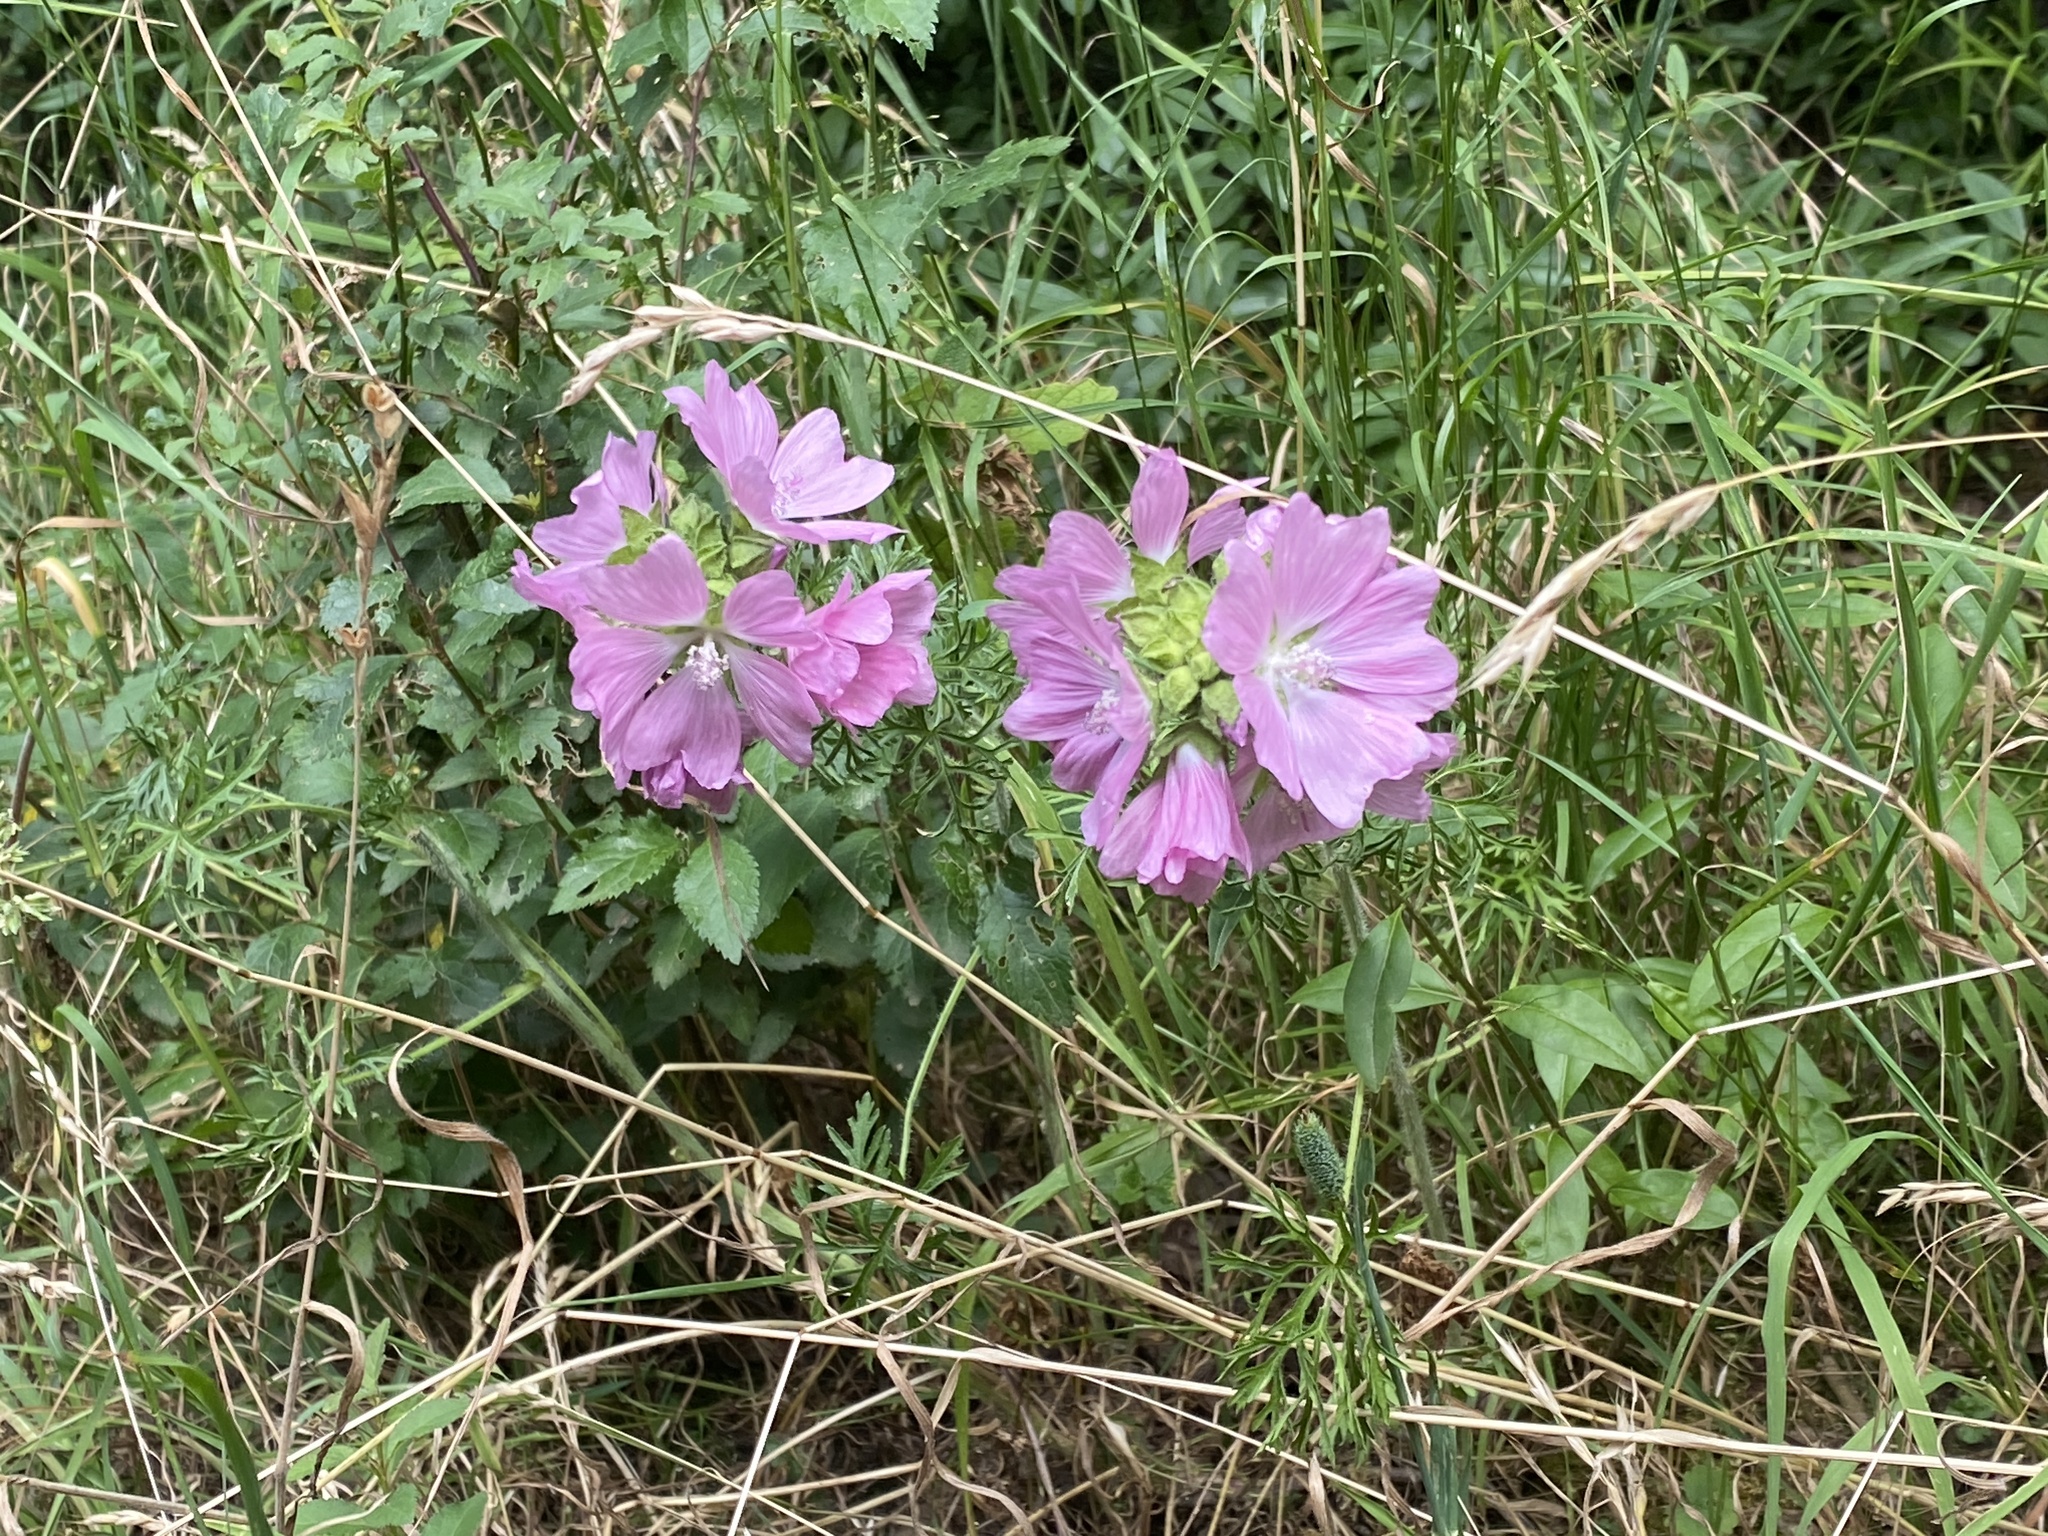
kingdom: Plantae
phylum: Tracheophyta
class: Magnoliopsida
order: Malvales
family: Malvaceae
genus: Malva
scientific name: Malva moschata
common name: Musk mallow
